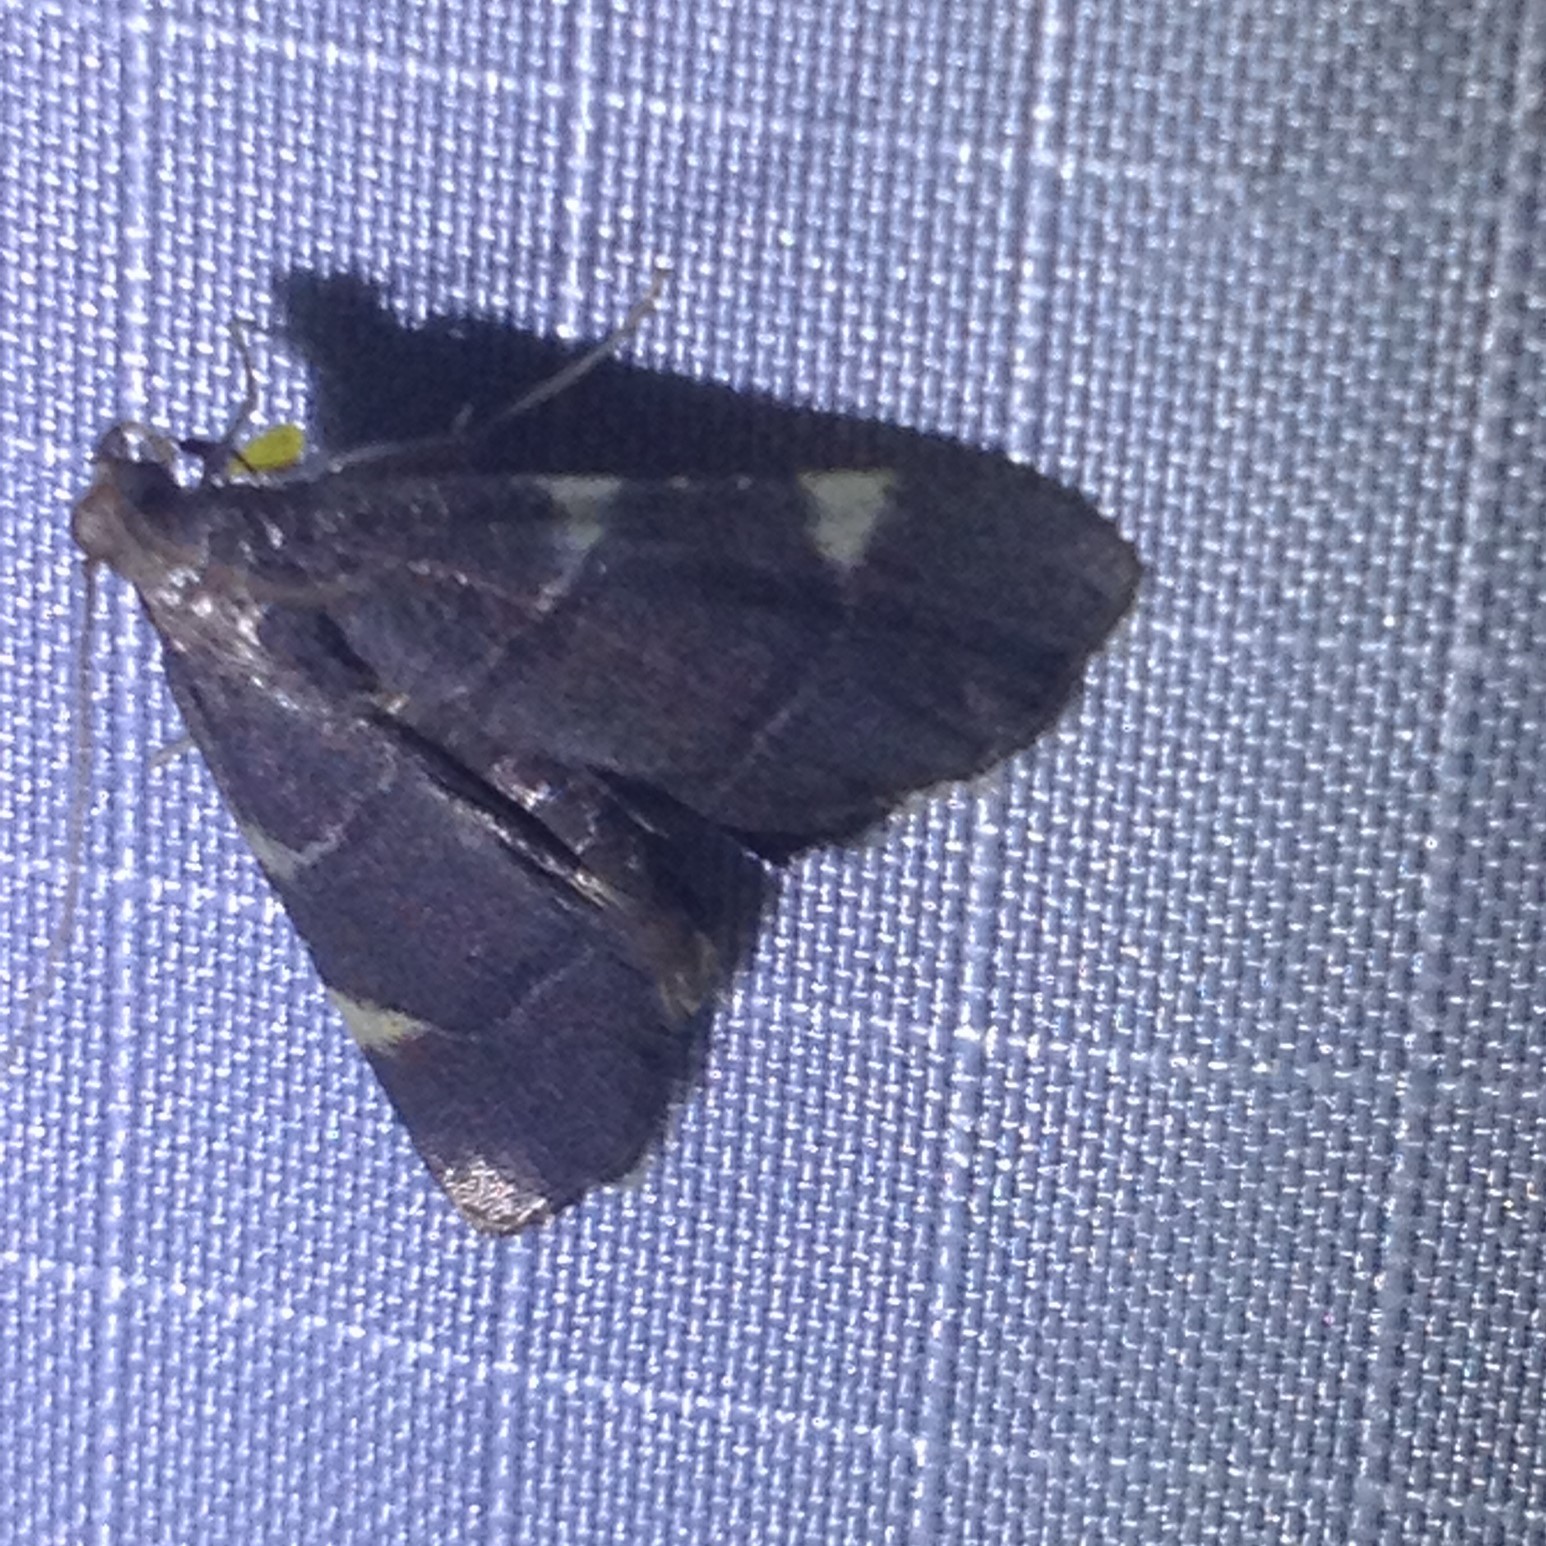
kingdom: Animalia
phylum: Arthropoda
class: Insecta
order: Lepidoptera
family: Pyralidae
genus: Hypsopygia
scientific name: Hypsopygia olinalis
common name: Yellow-fringed dolichomia moth
